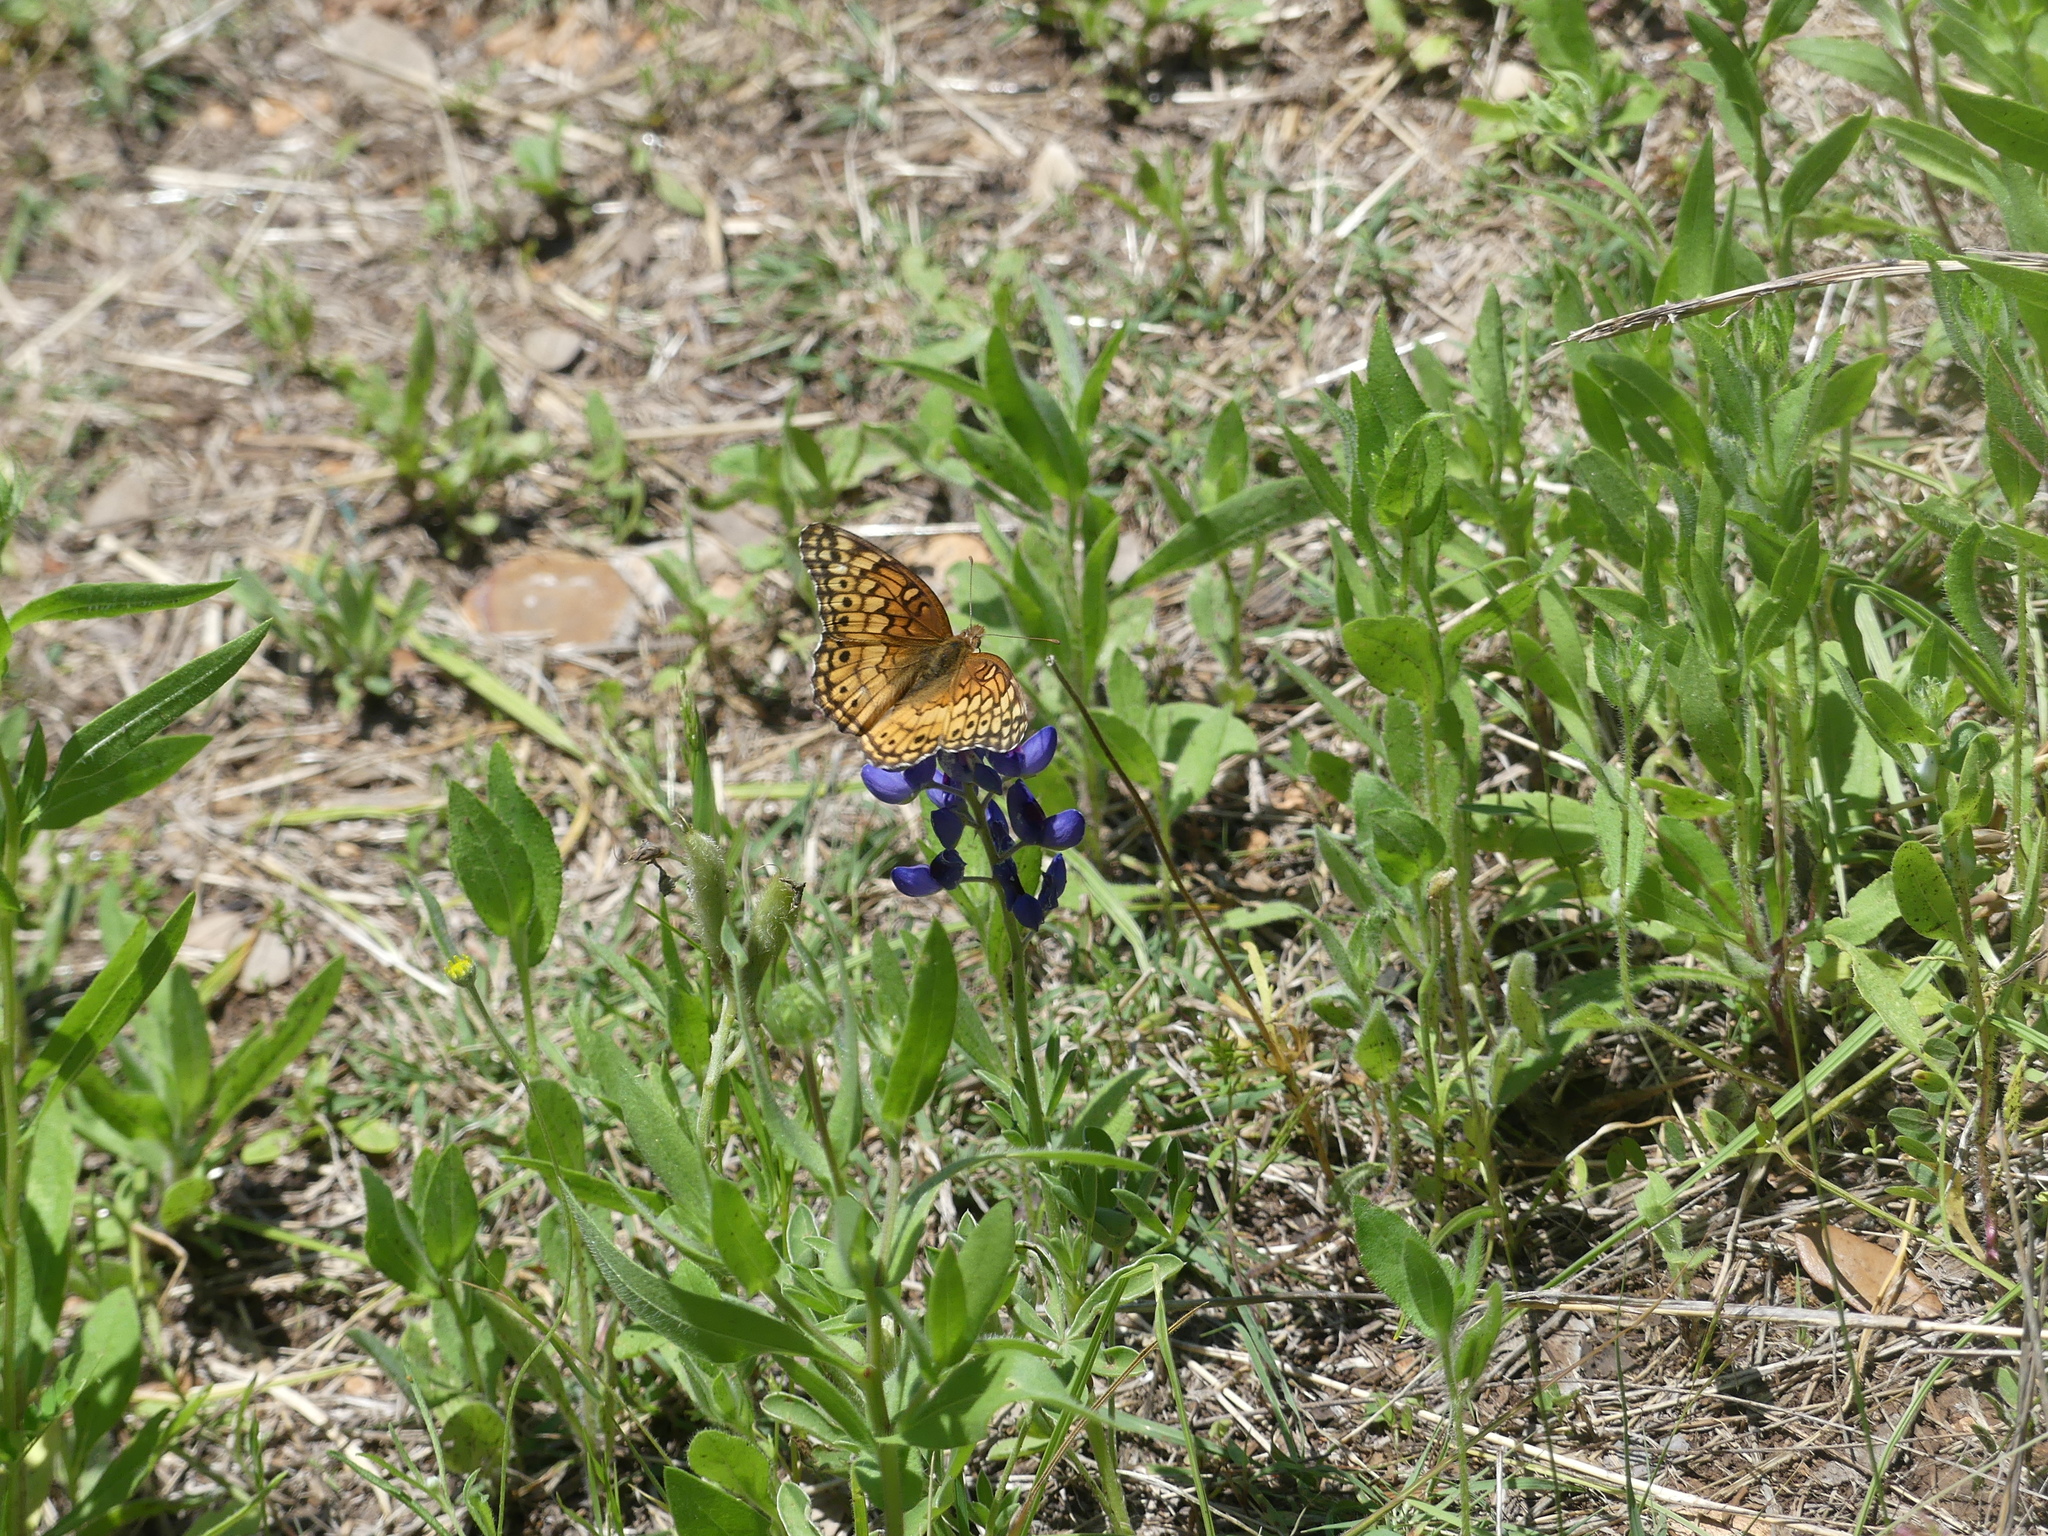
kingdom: Animalia
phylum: Arthropoda
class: Insecta
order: Lepidoptera
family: Nymphalidae
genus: Euptoieta
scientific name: Euptoieta claudia
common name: Variegated fritillary
